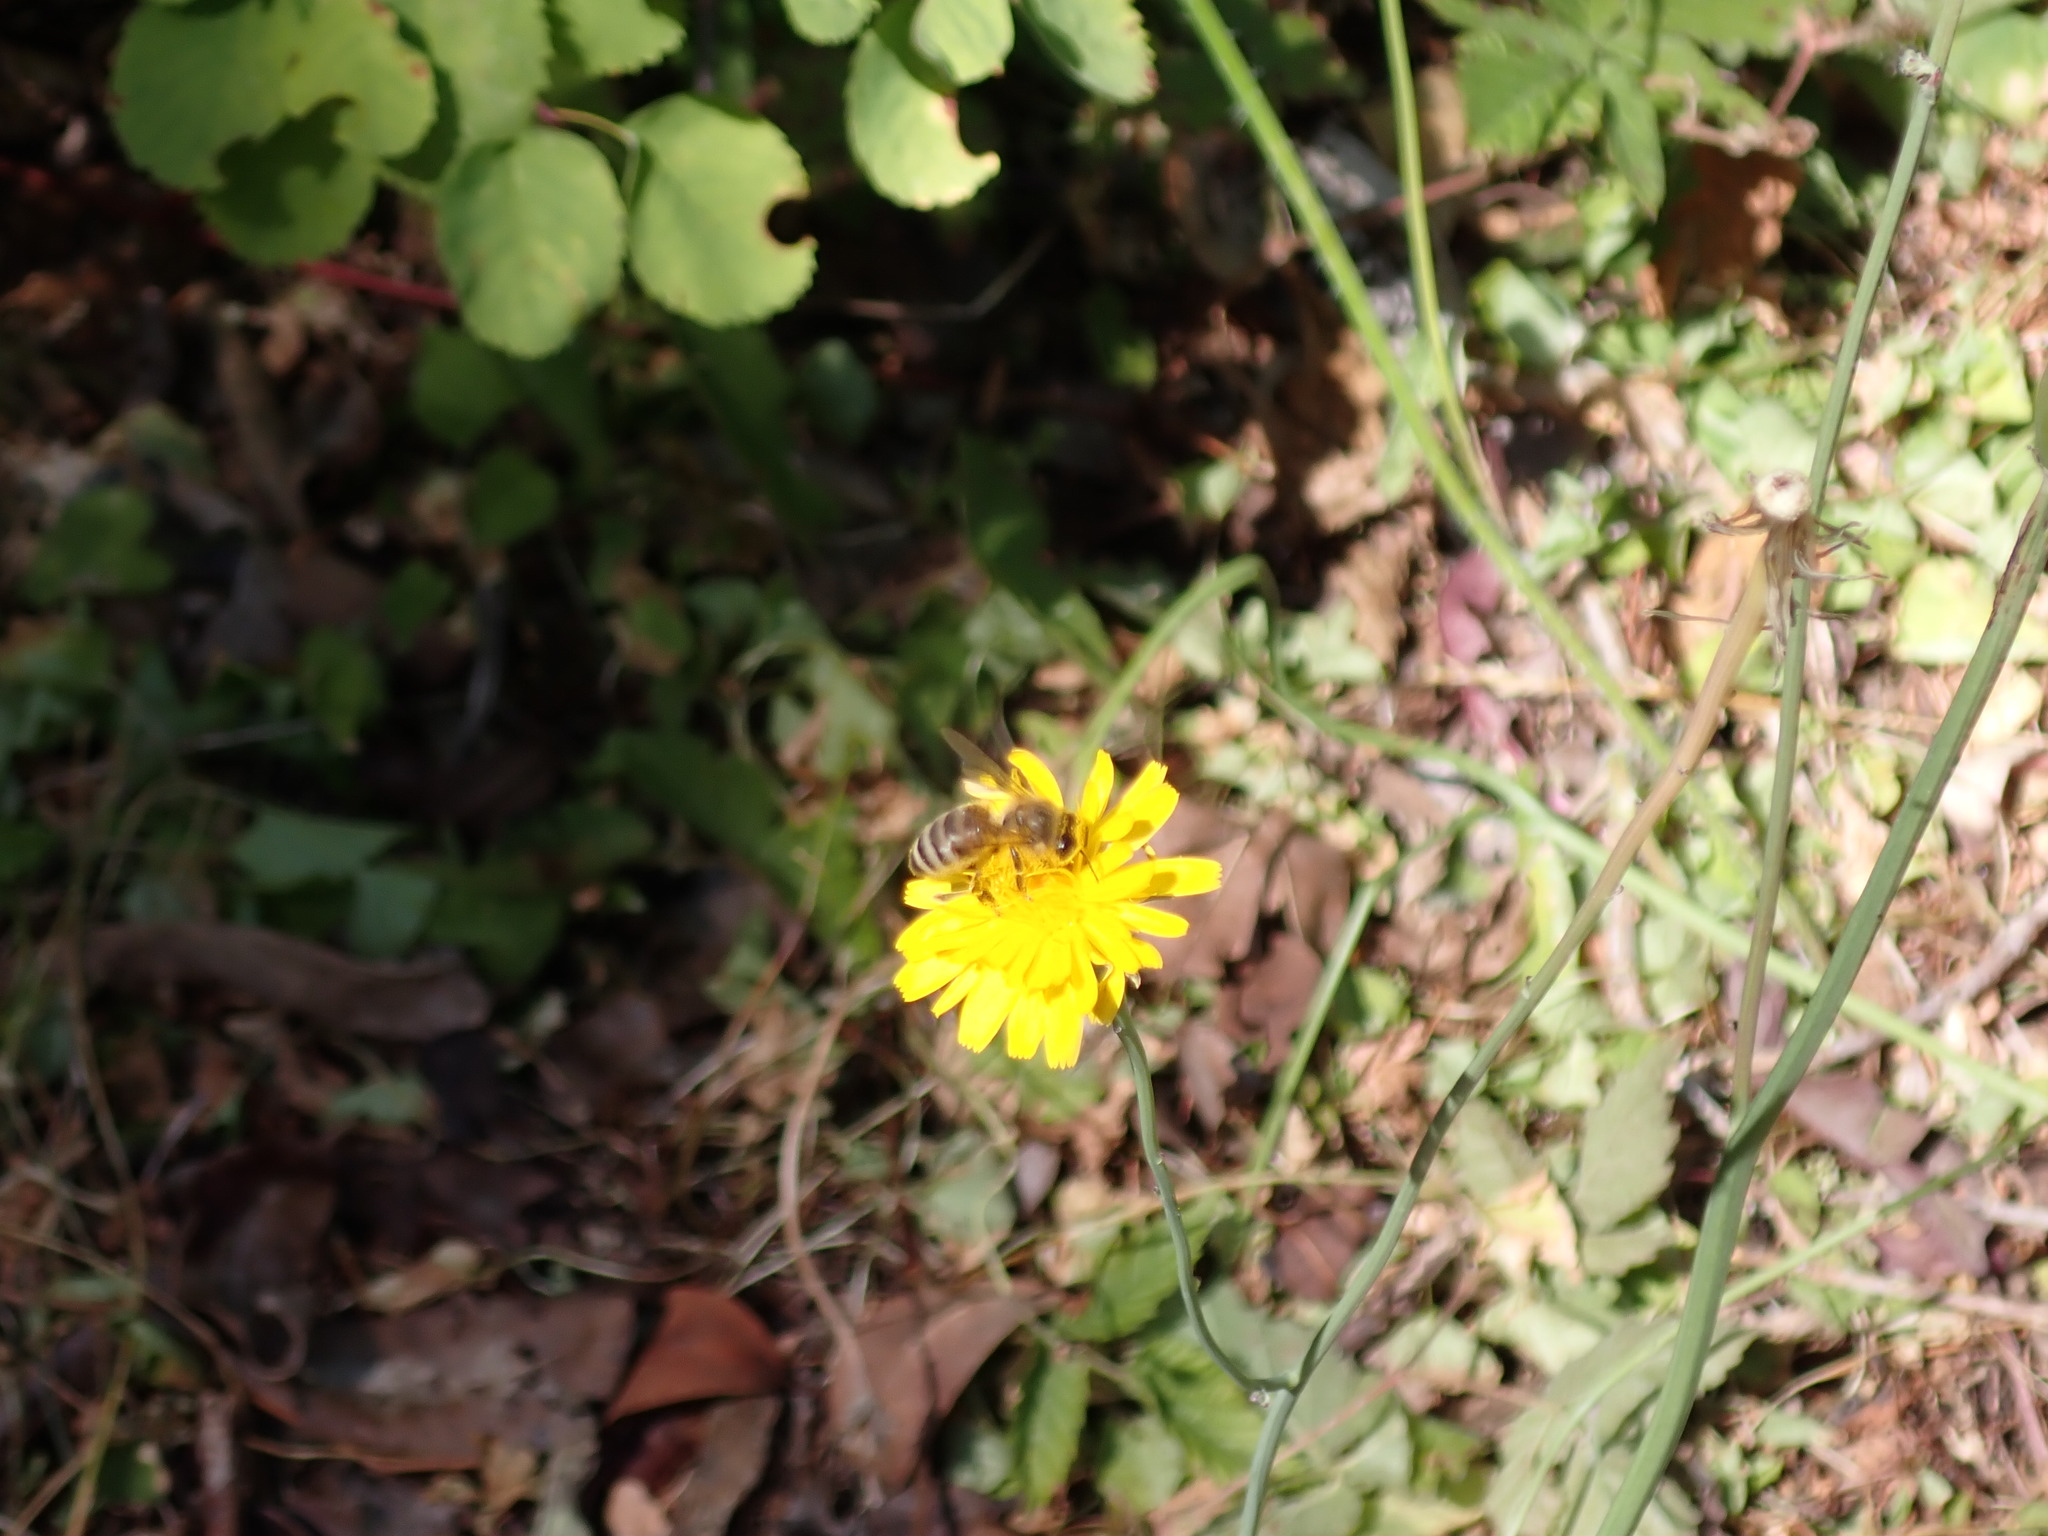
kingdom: Animalia
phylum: Arthropoda
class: Insecta
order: Hymenoptera
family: Apidae
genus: Apis
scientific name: Apis mellifera
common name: Honey bee
